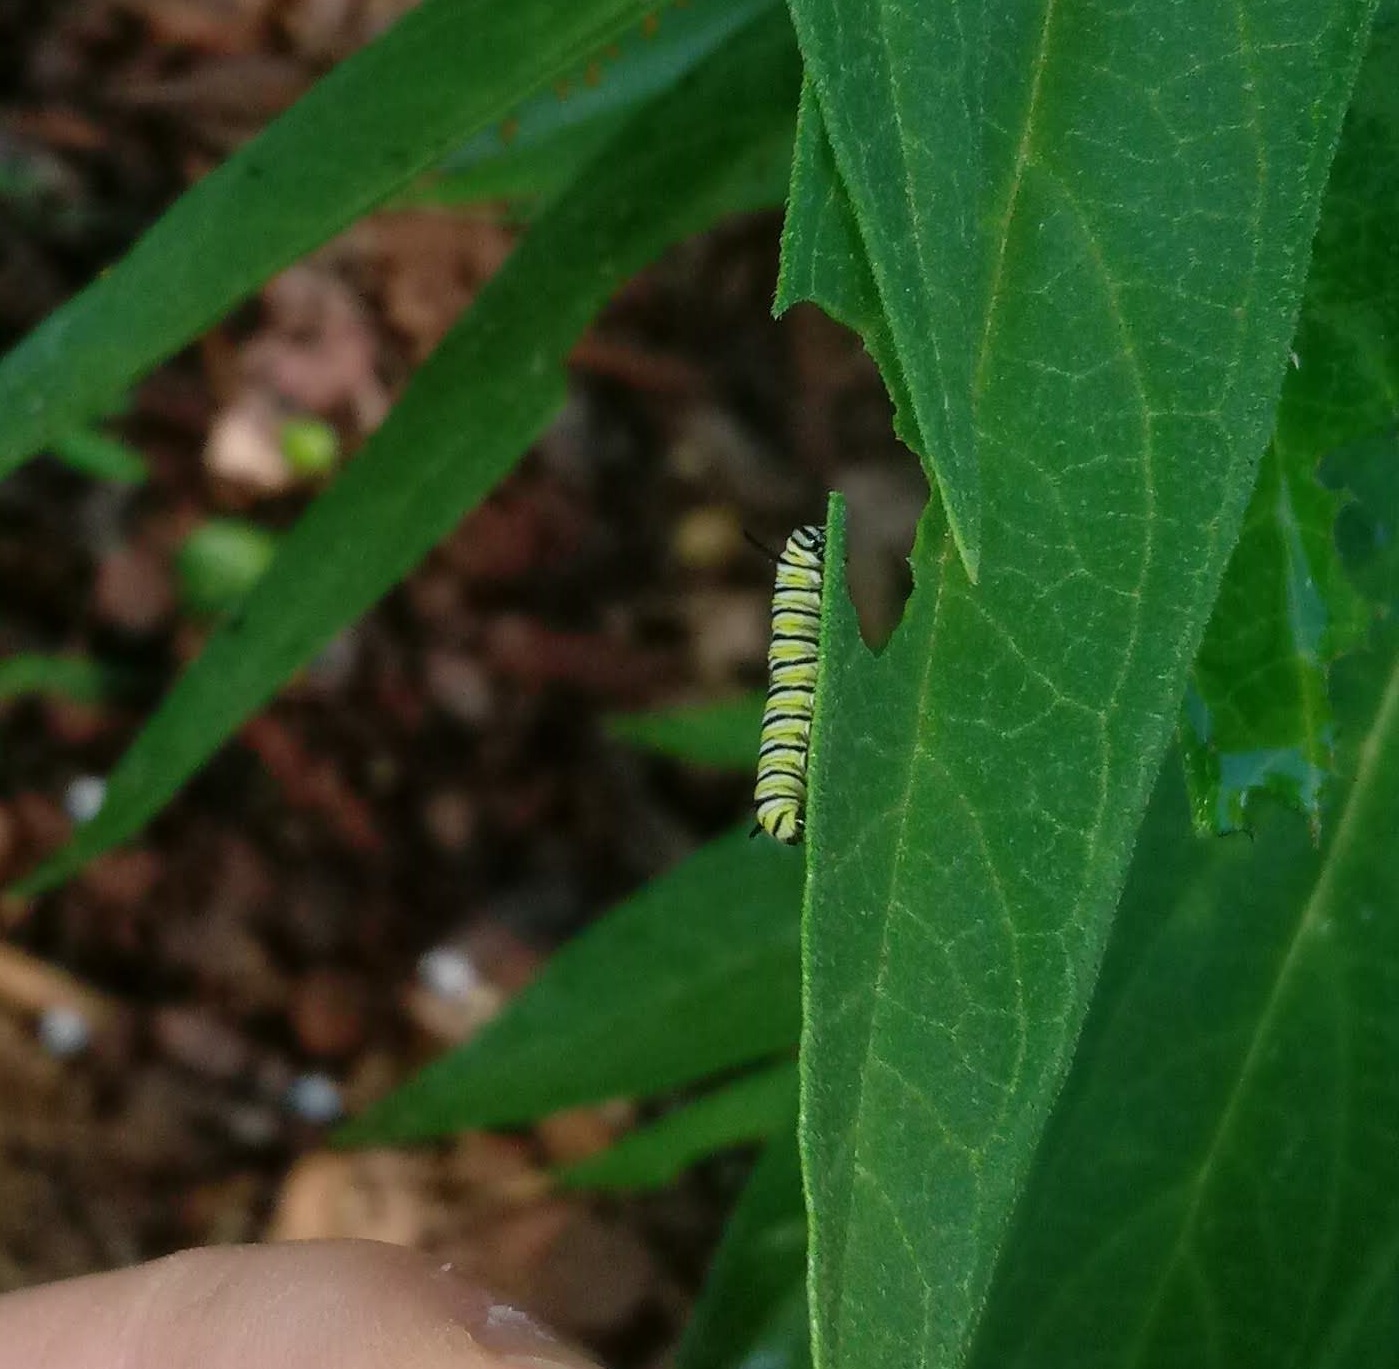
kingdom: Animalia
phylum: Arthropoda
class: Insecta
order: Lepidoptera
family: Nymphalidae
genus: Danaus
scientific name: Danaus plexippus
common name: Monarch
